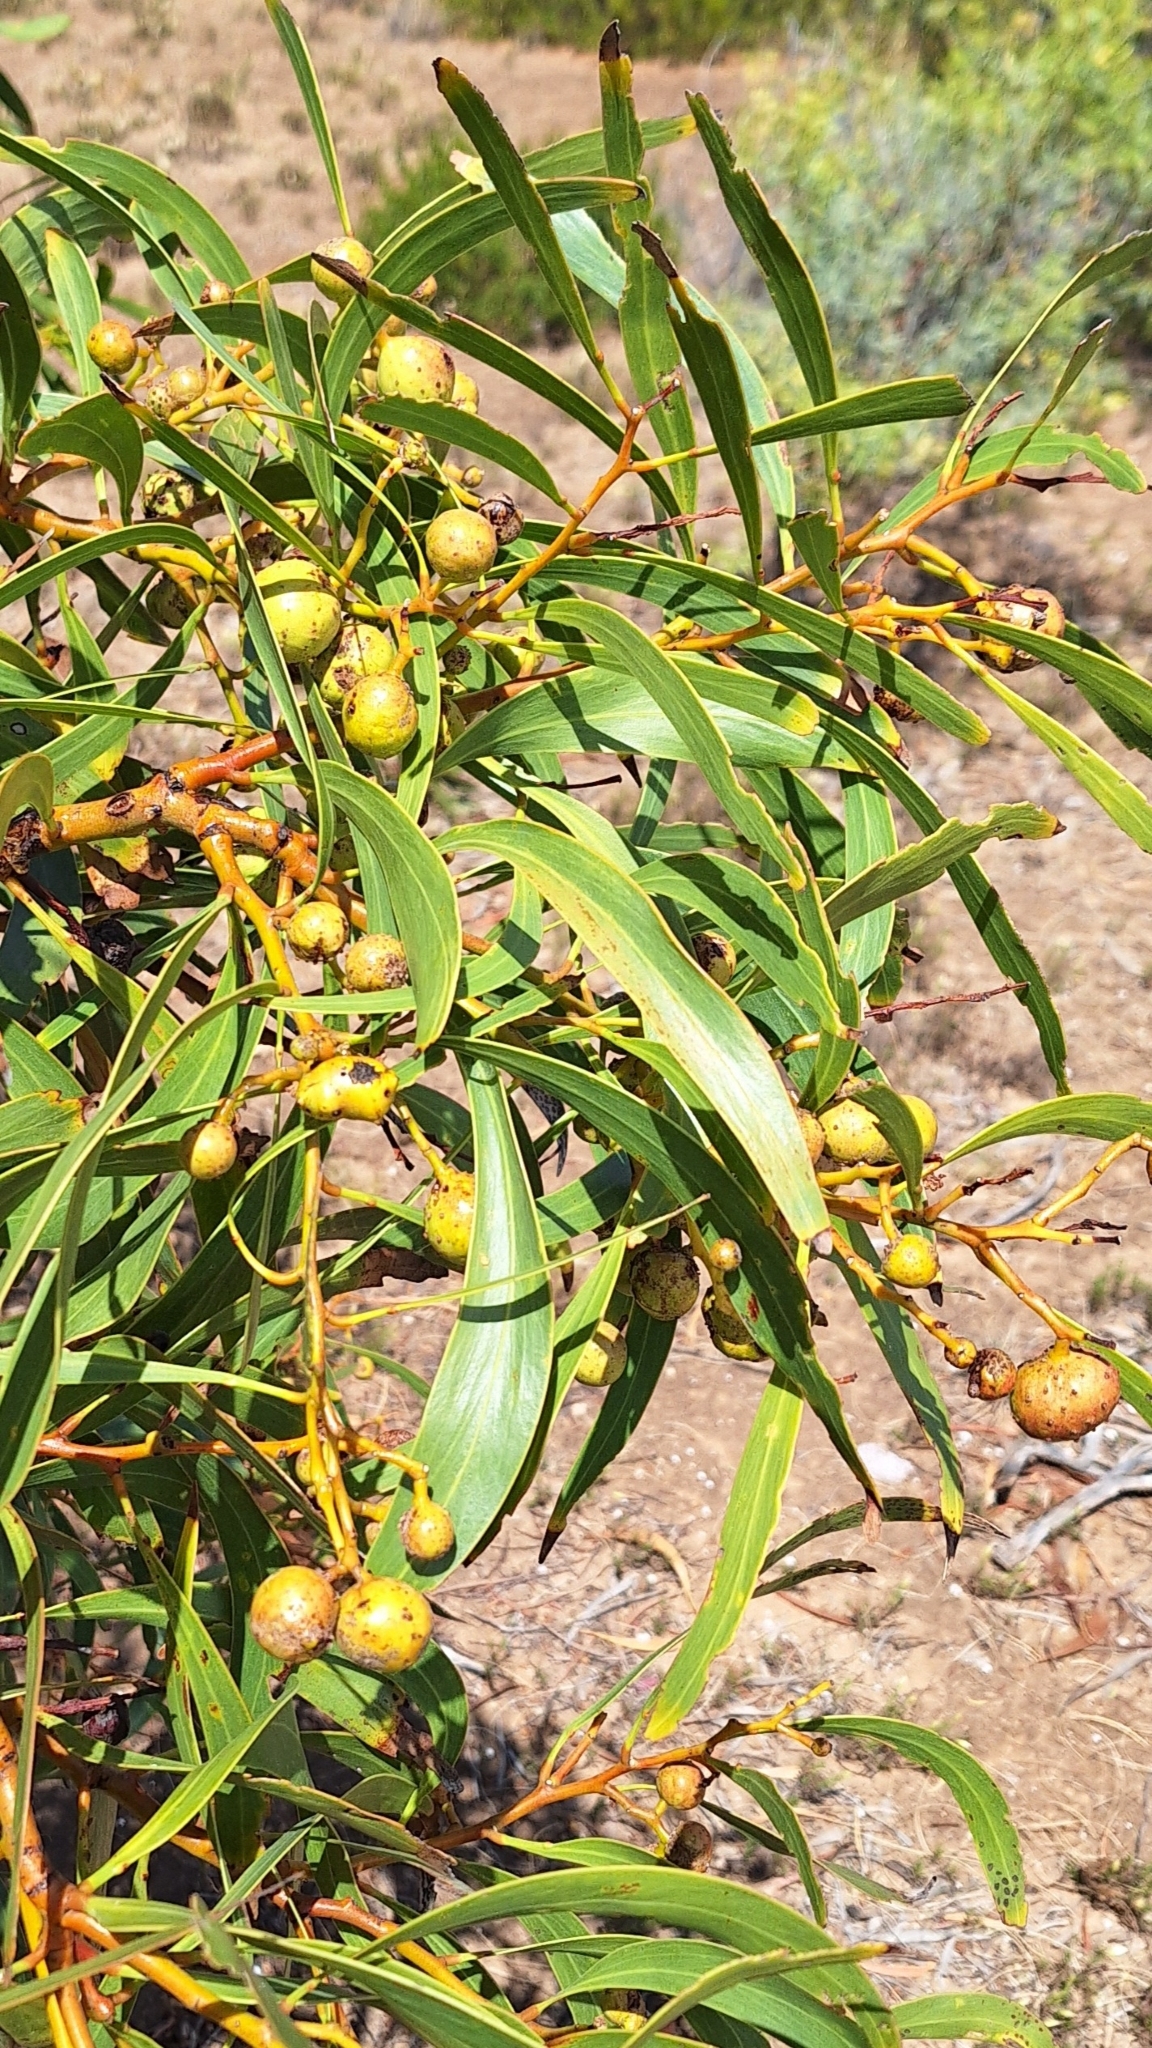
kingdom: Plantae
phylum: Tracheophyta
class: Magnoliopsida
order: Fabales
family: Fabaceae
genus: Acacia
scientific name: Acacia pycnantha
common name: Golden wattle
